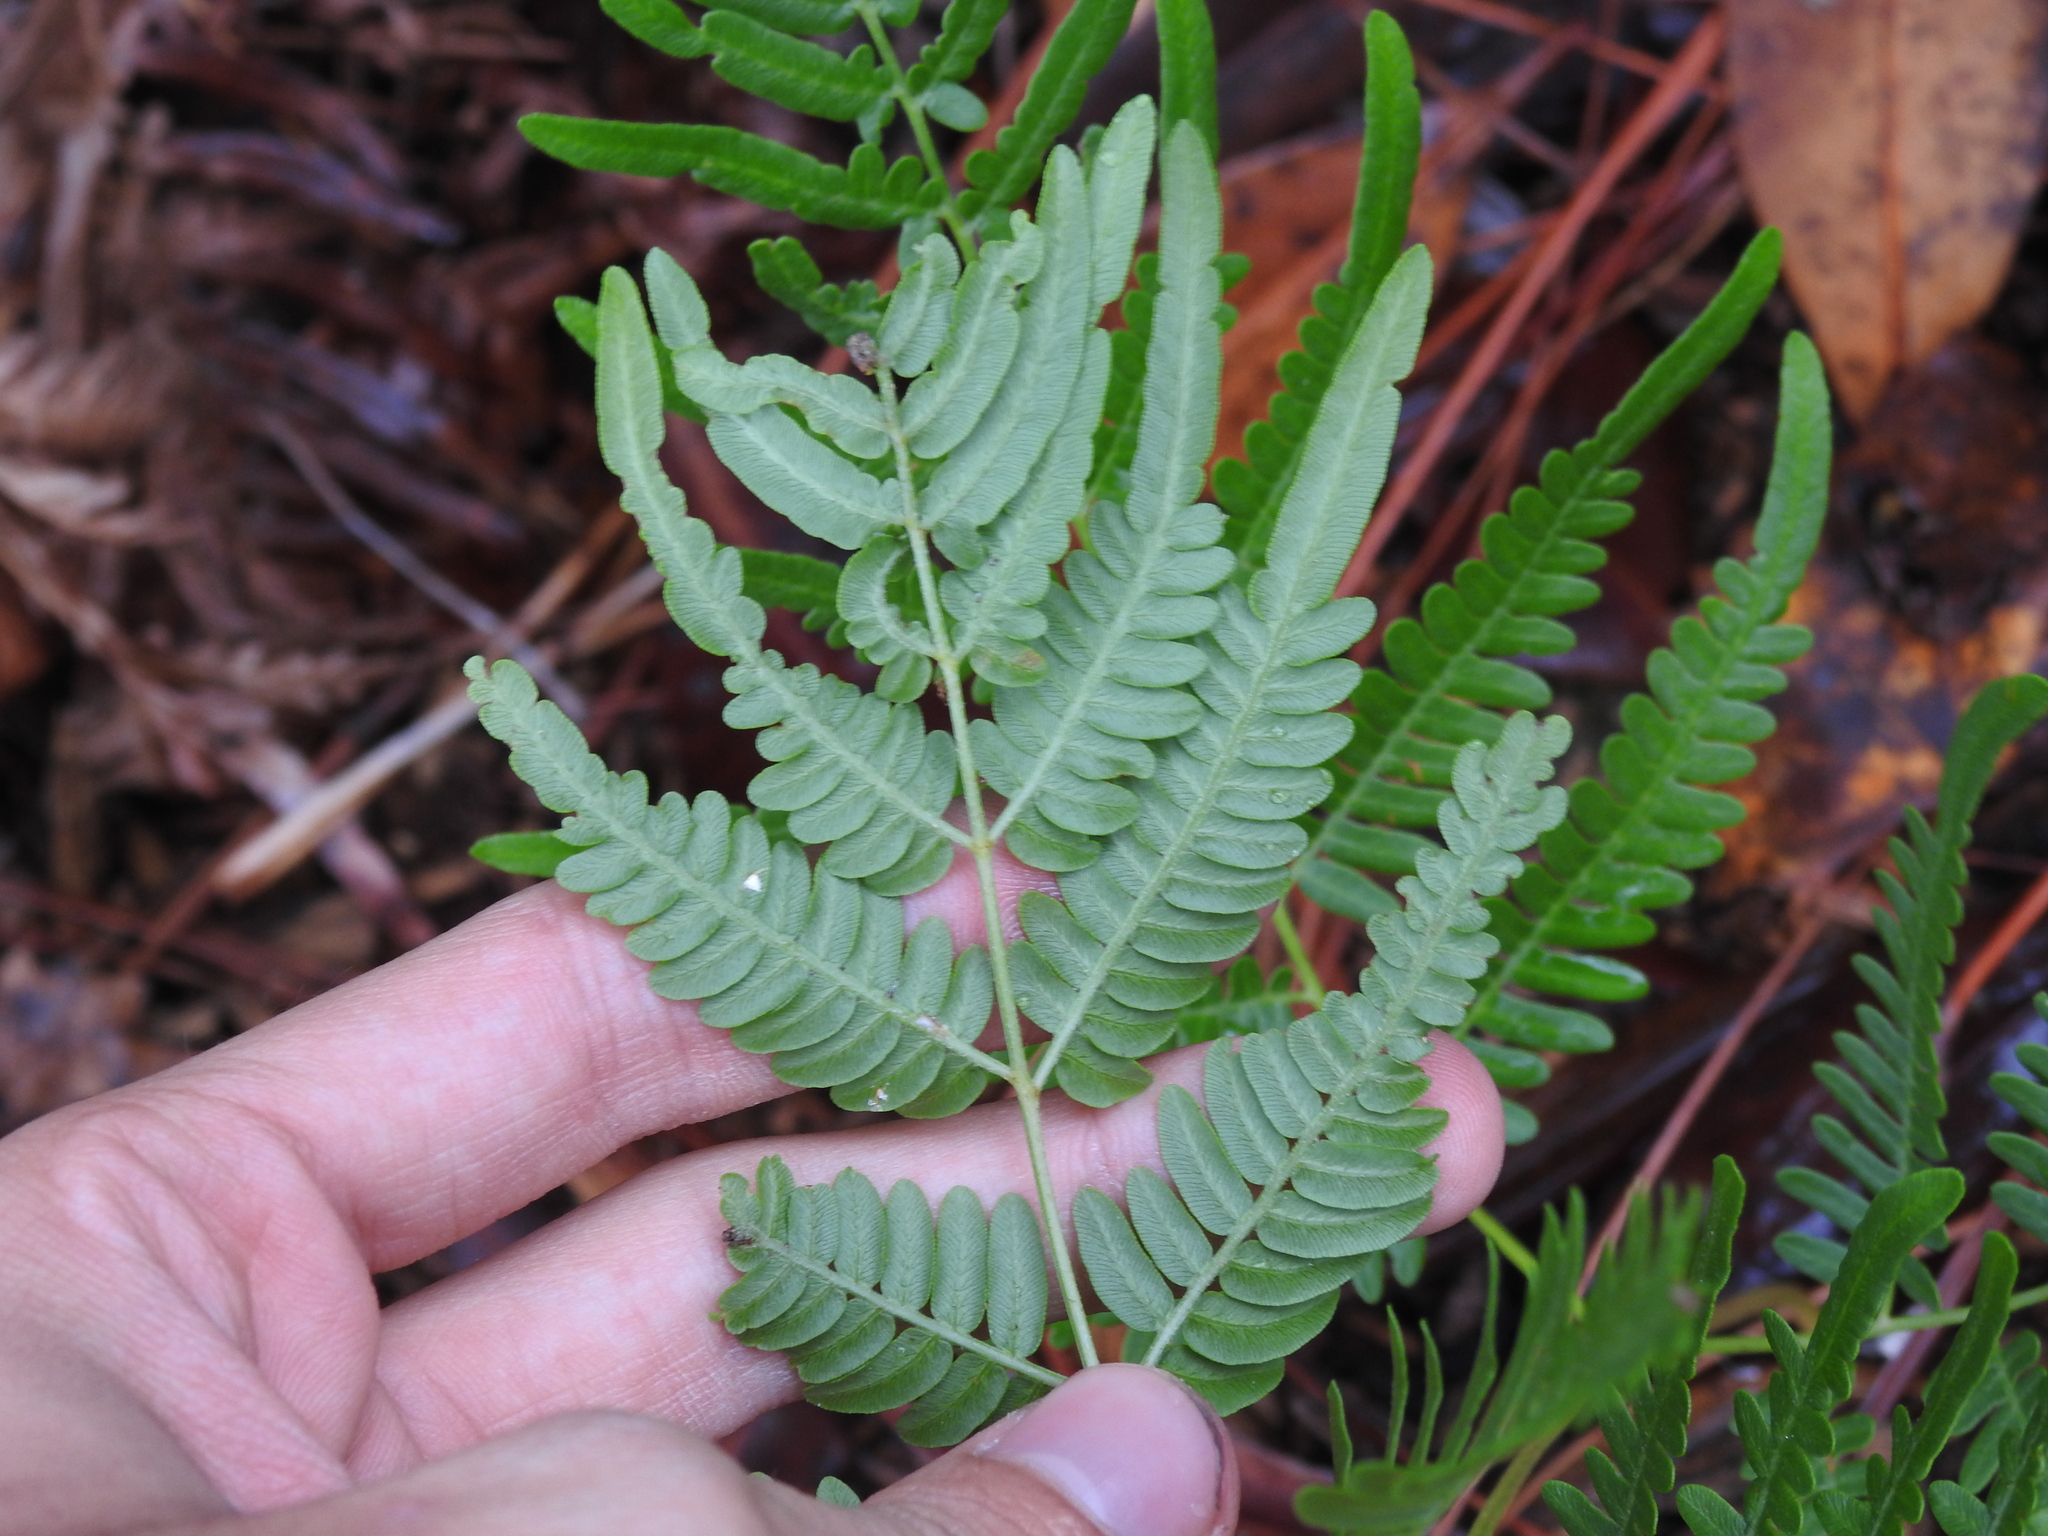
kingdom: Plantae
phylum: Tracheophyta
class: Polypodiopsida
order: Polypodiales
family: Dennstaedtiaceae
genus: Pteridium
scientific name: Pteridium
